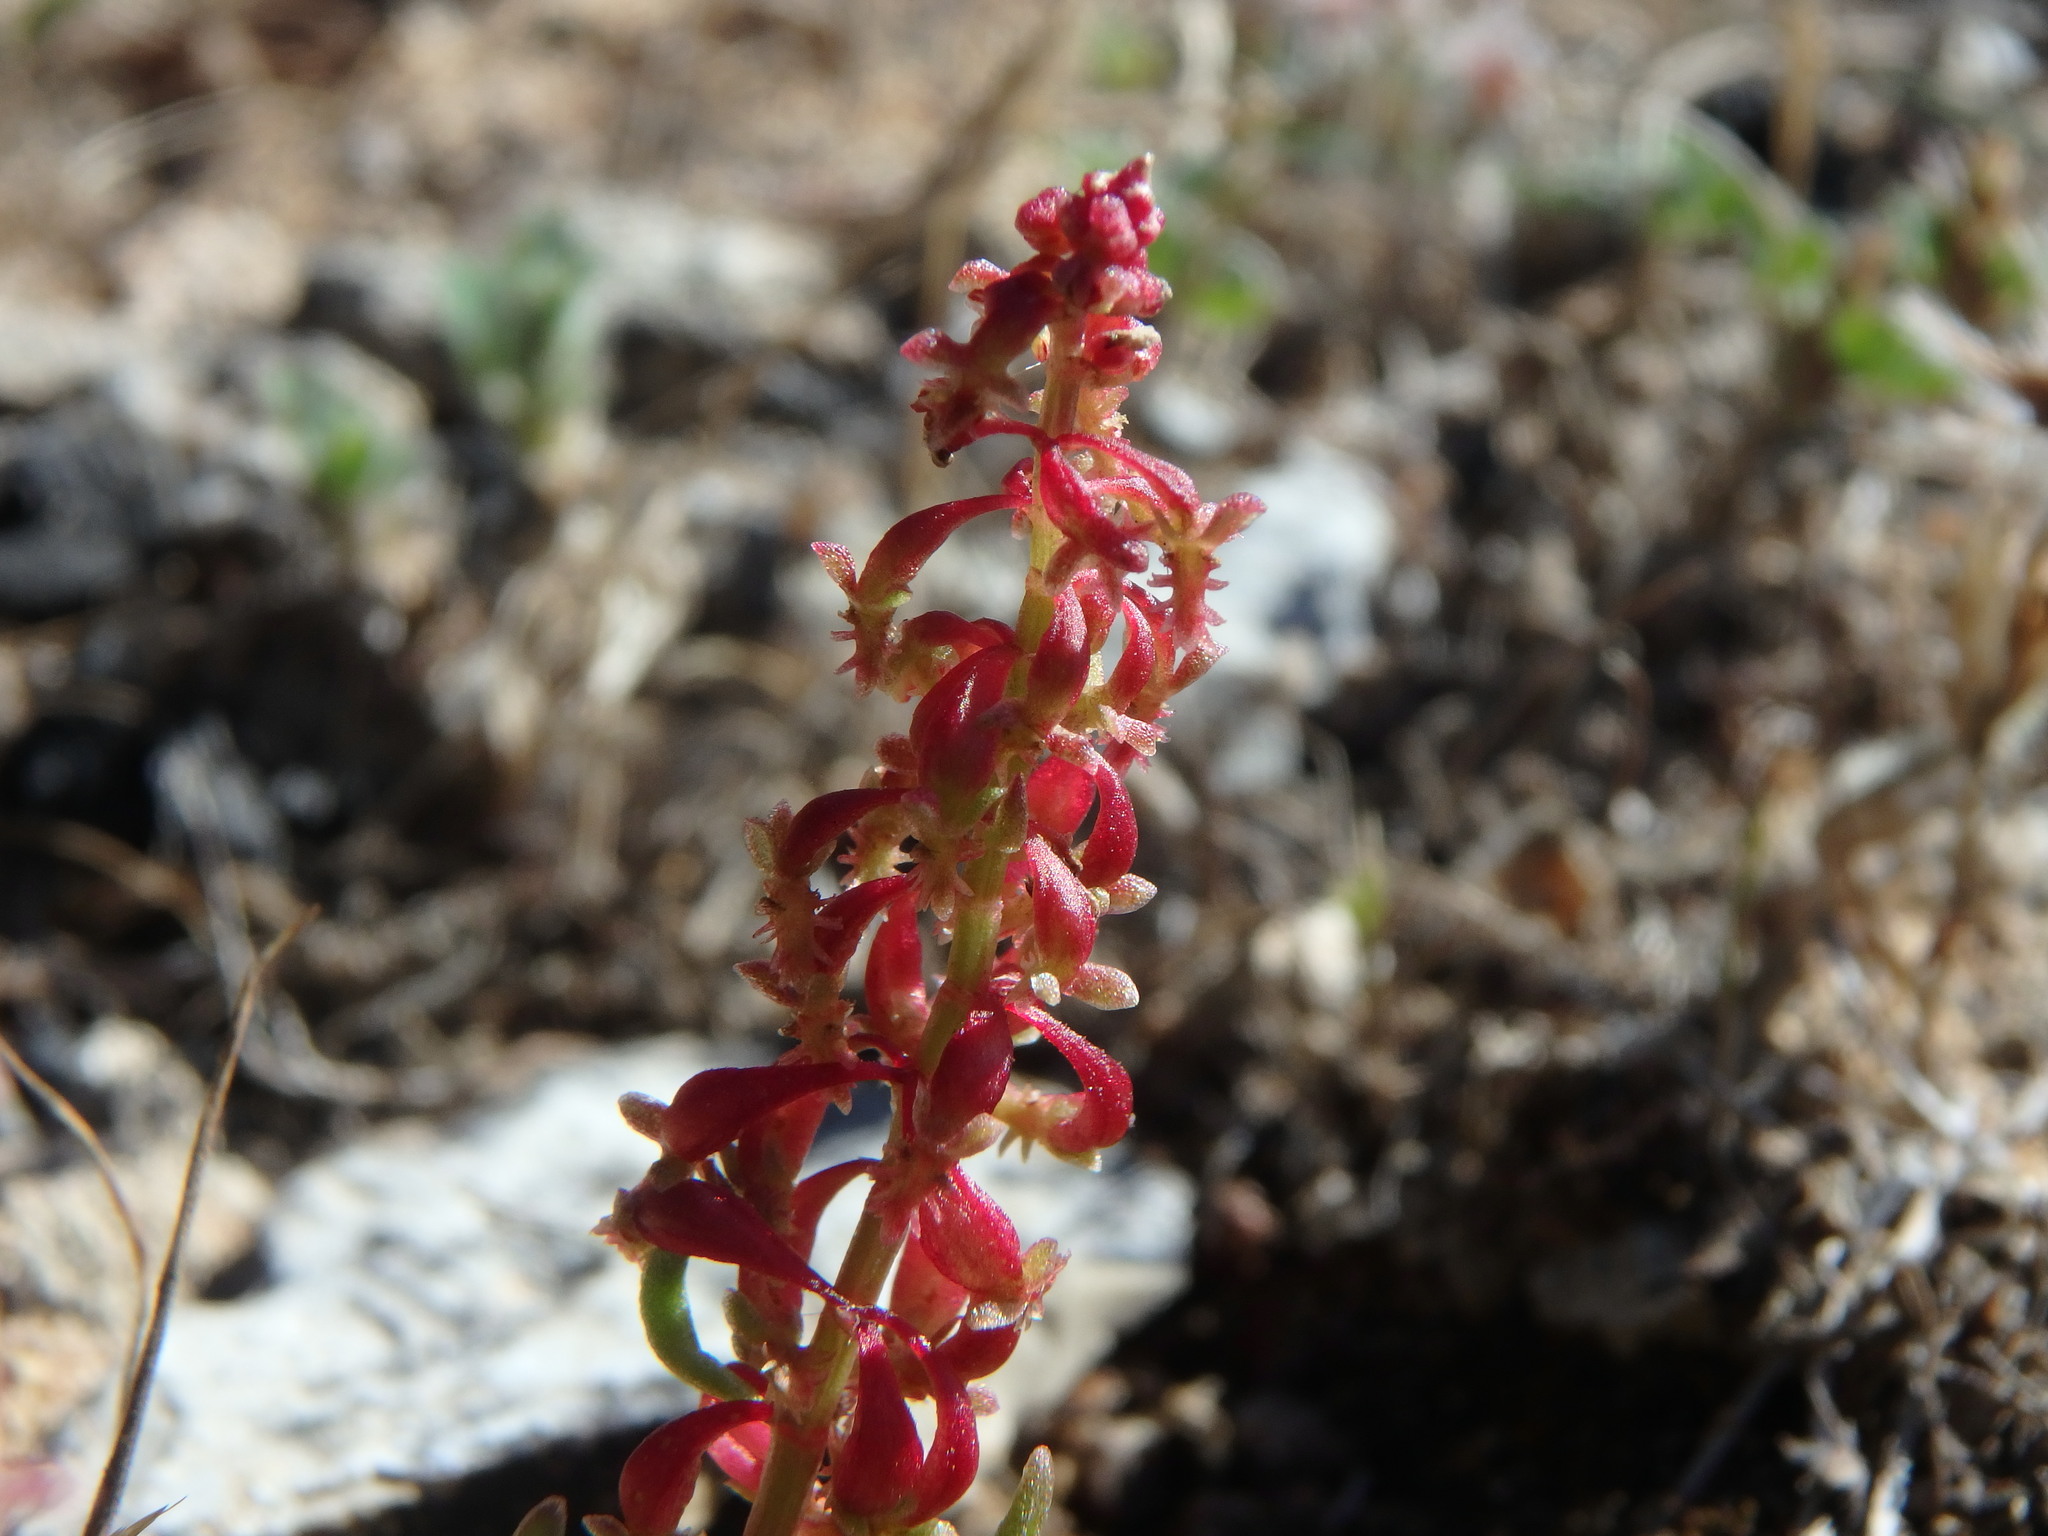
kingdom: Plantae
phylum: Tracheophyta
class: Magnoliopsida
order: Caryophyllales
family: Polygonaceae
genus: Rumex
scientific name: Rumex bucephalophorus
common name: Red dock
